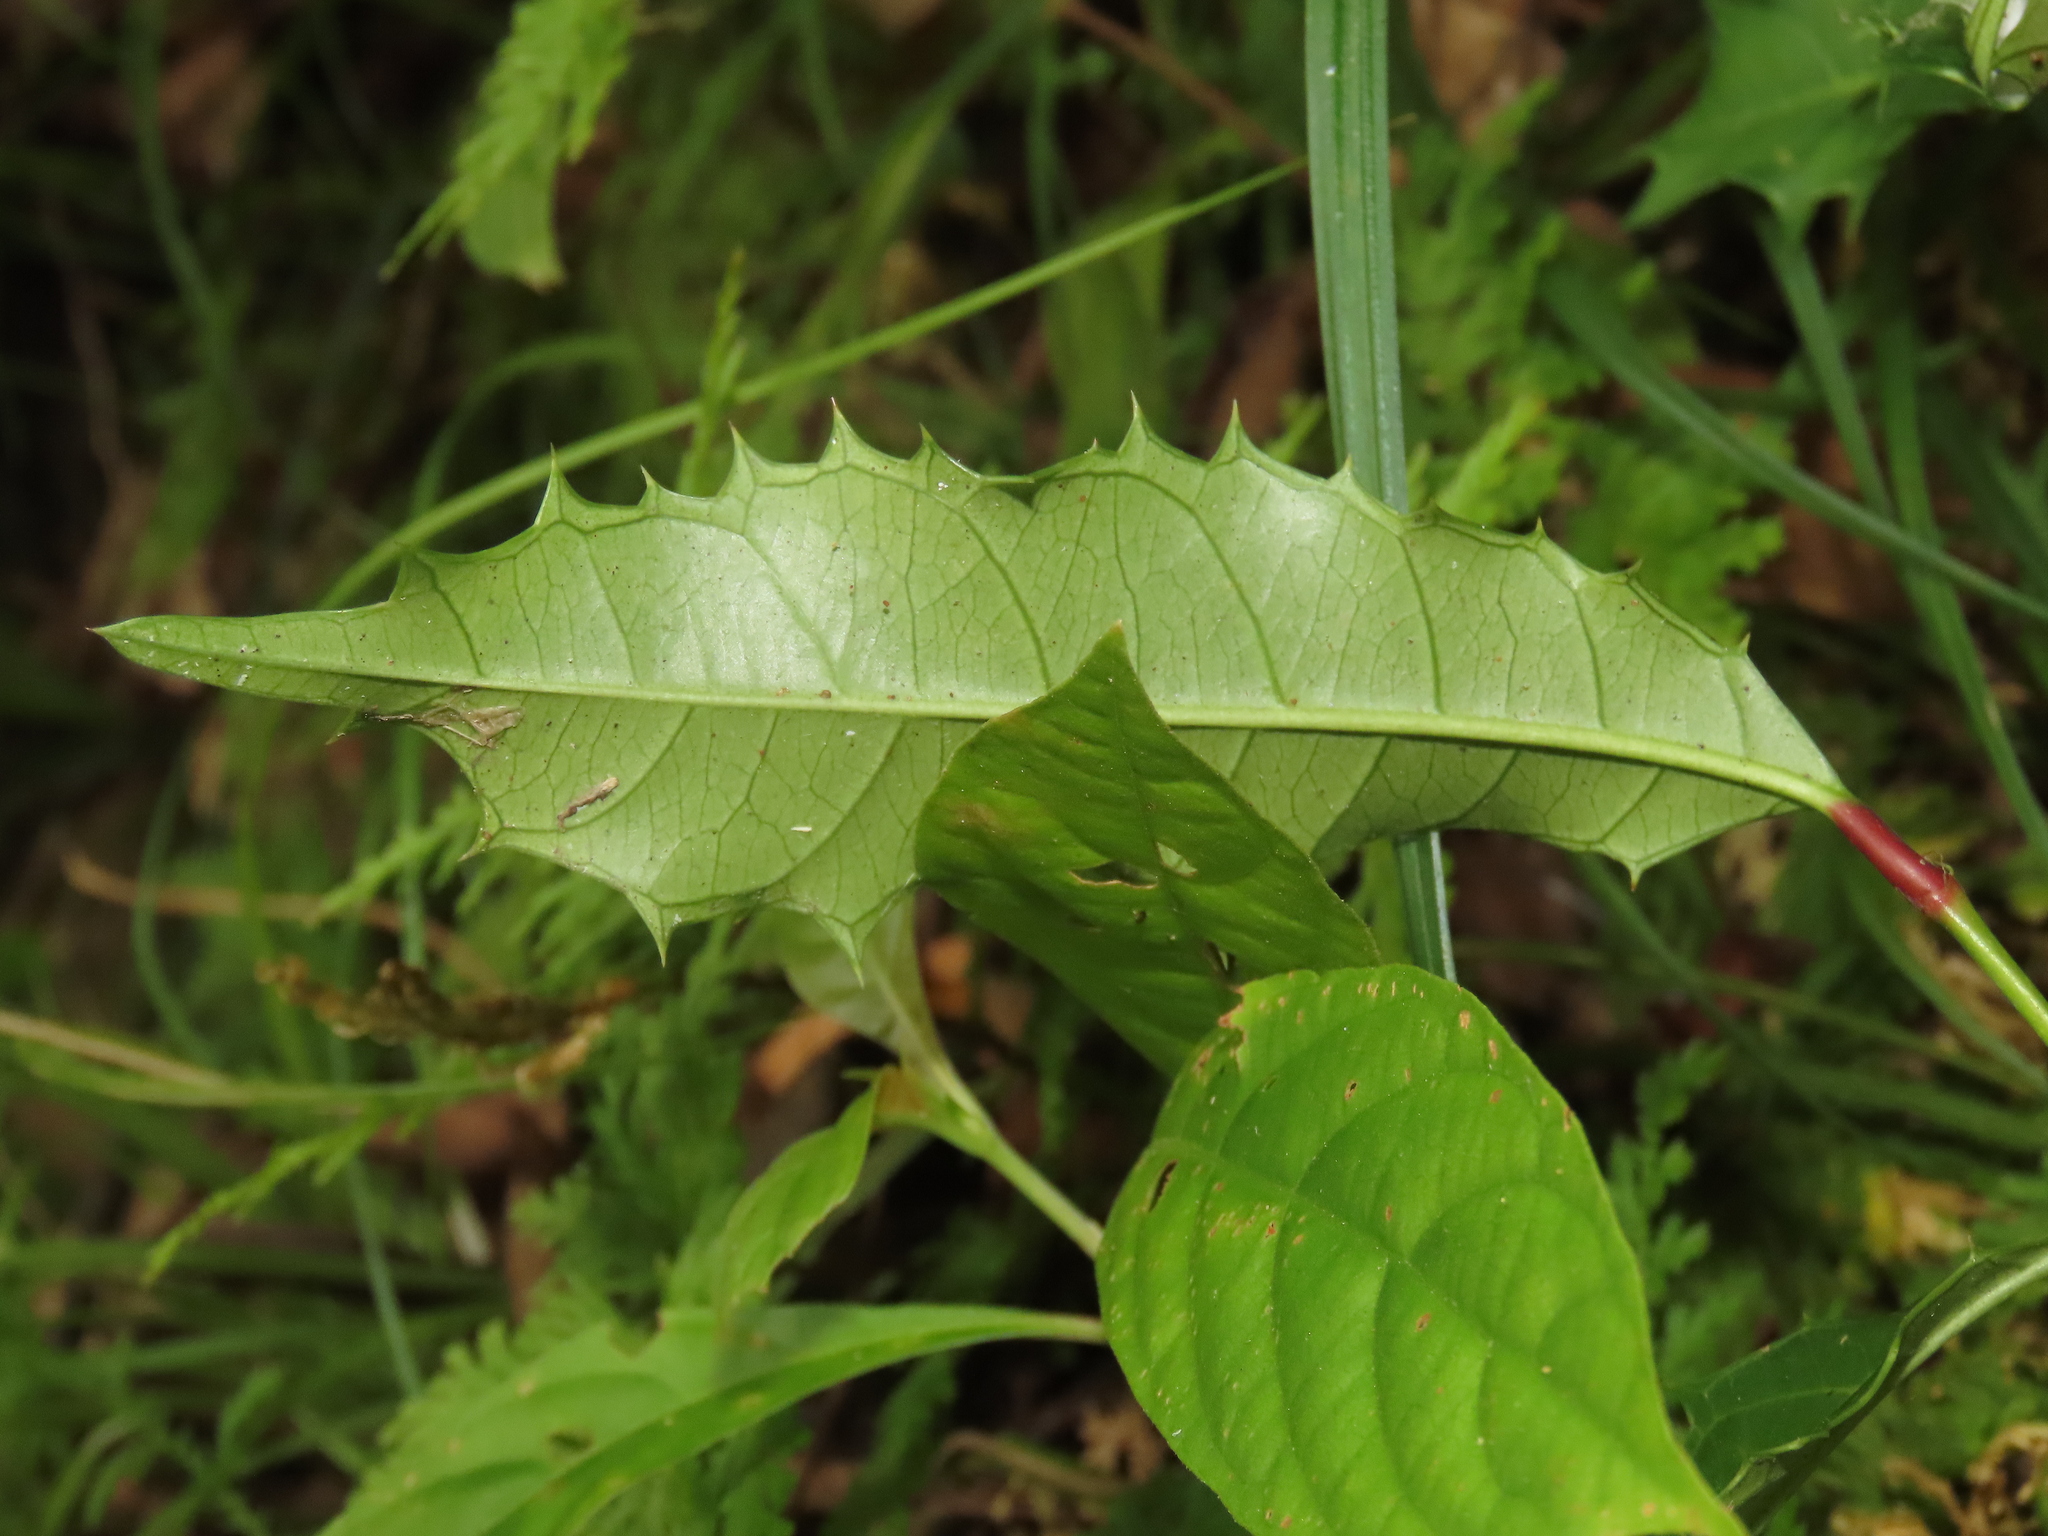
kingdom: Plantae
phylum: Tracheophyta
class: Magnoliopsida
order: Saxifragales
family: Iteaceae
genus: Itea
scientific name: Itea oldhamii
